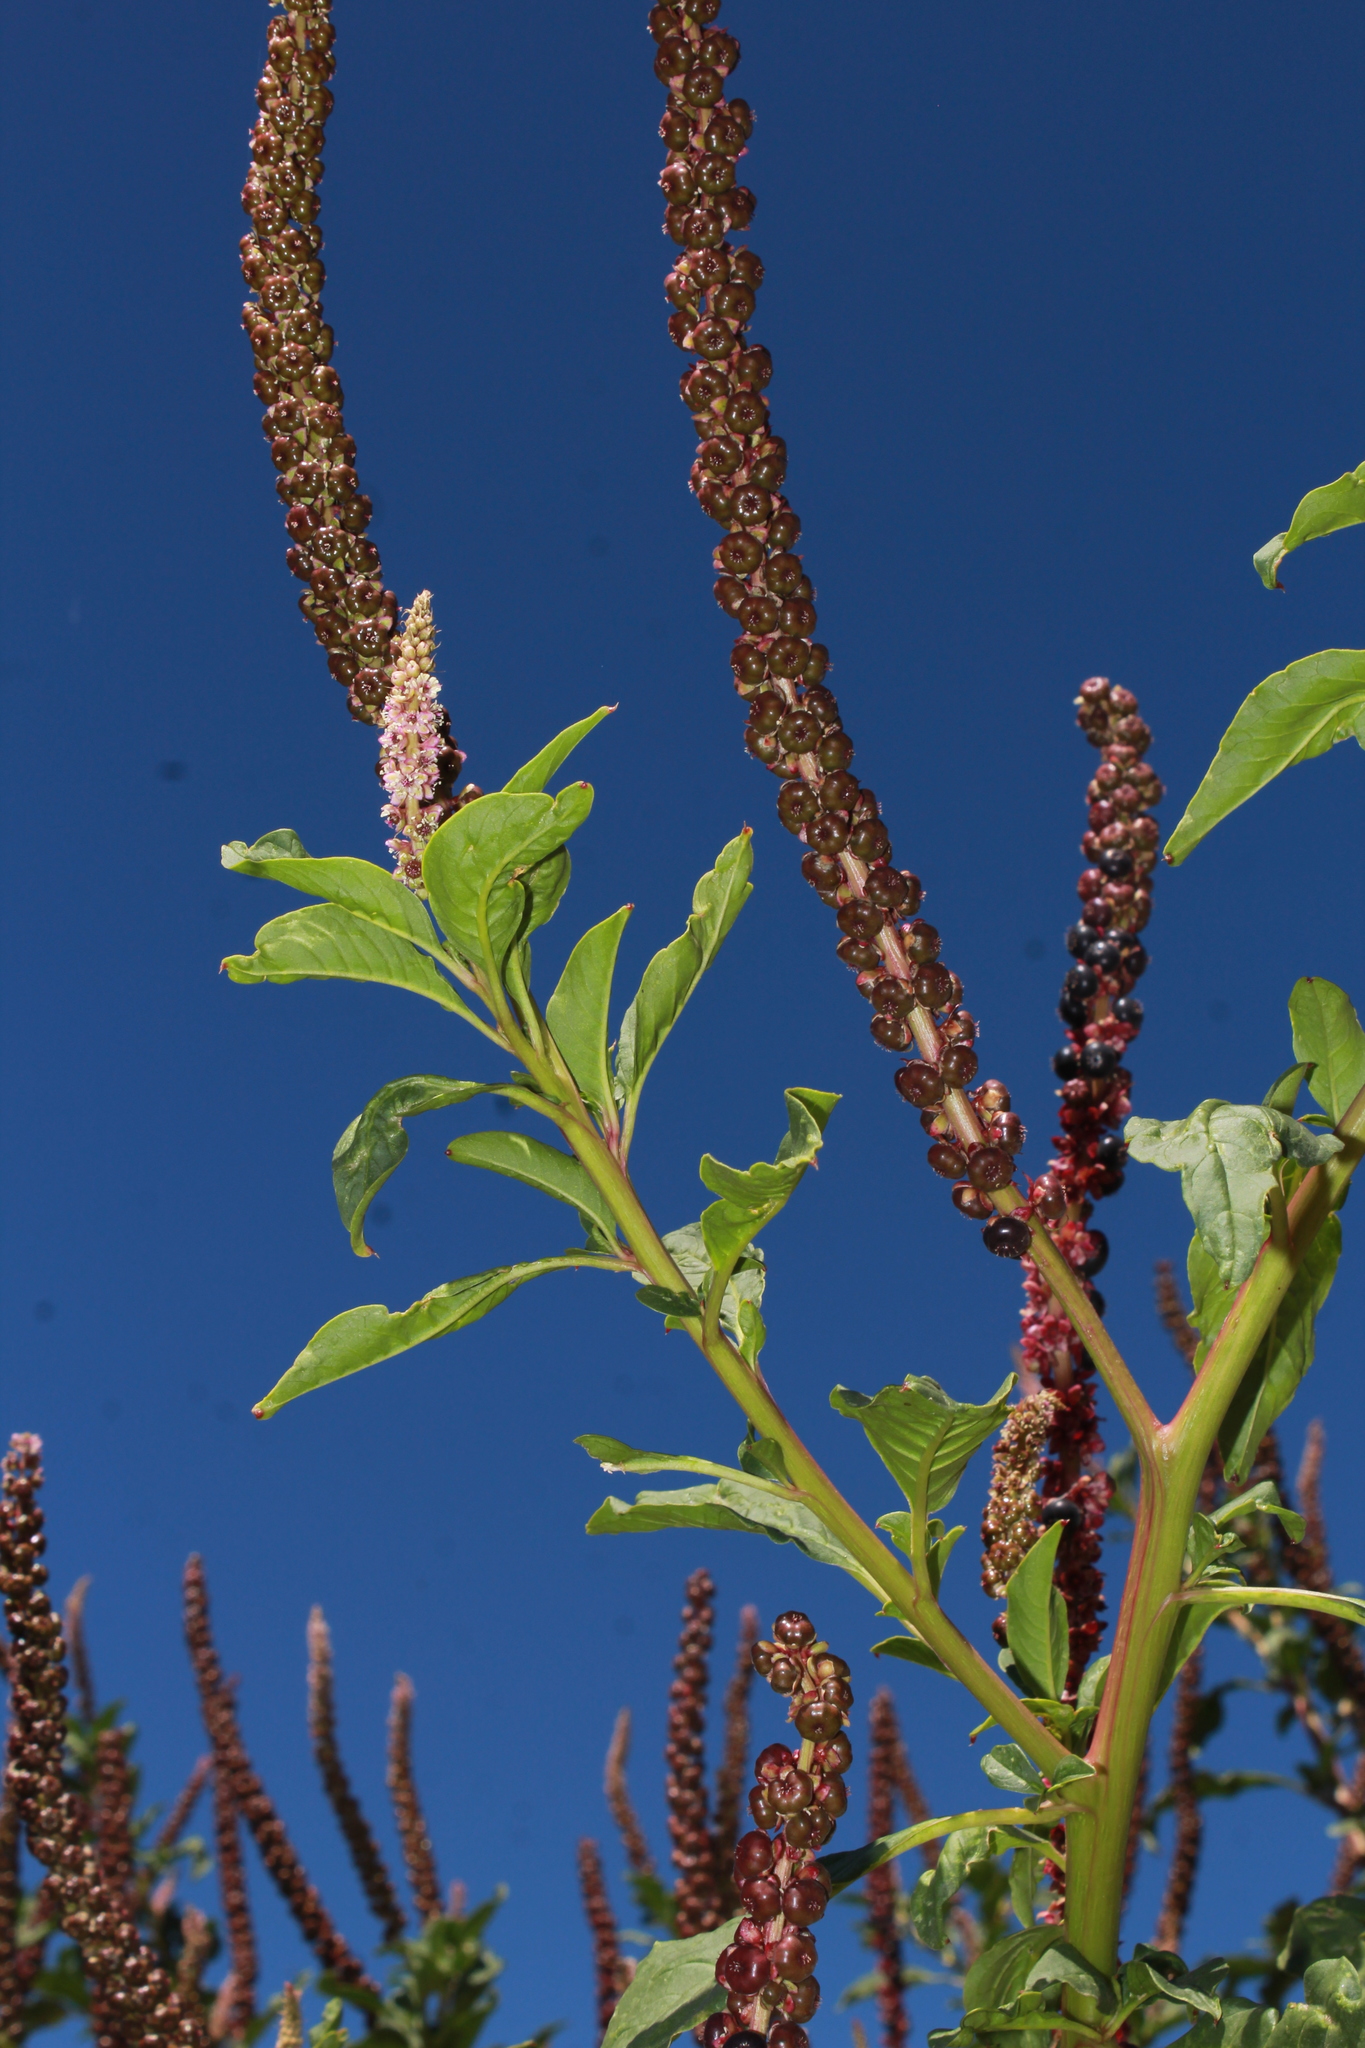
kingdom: Plantae
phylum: Tracheophyta
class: Magnoliopsida
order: Caryophyllales
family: Phytolaccaceae
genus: Phytolacca
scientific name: Phytolacca icosandra
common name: Button pokeweed
